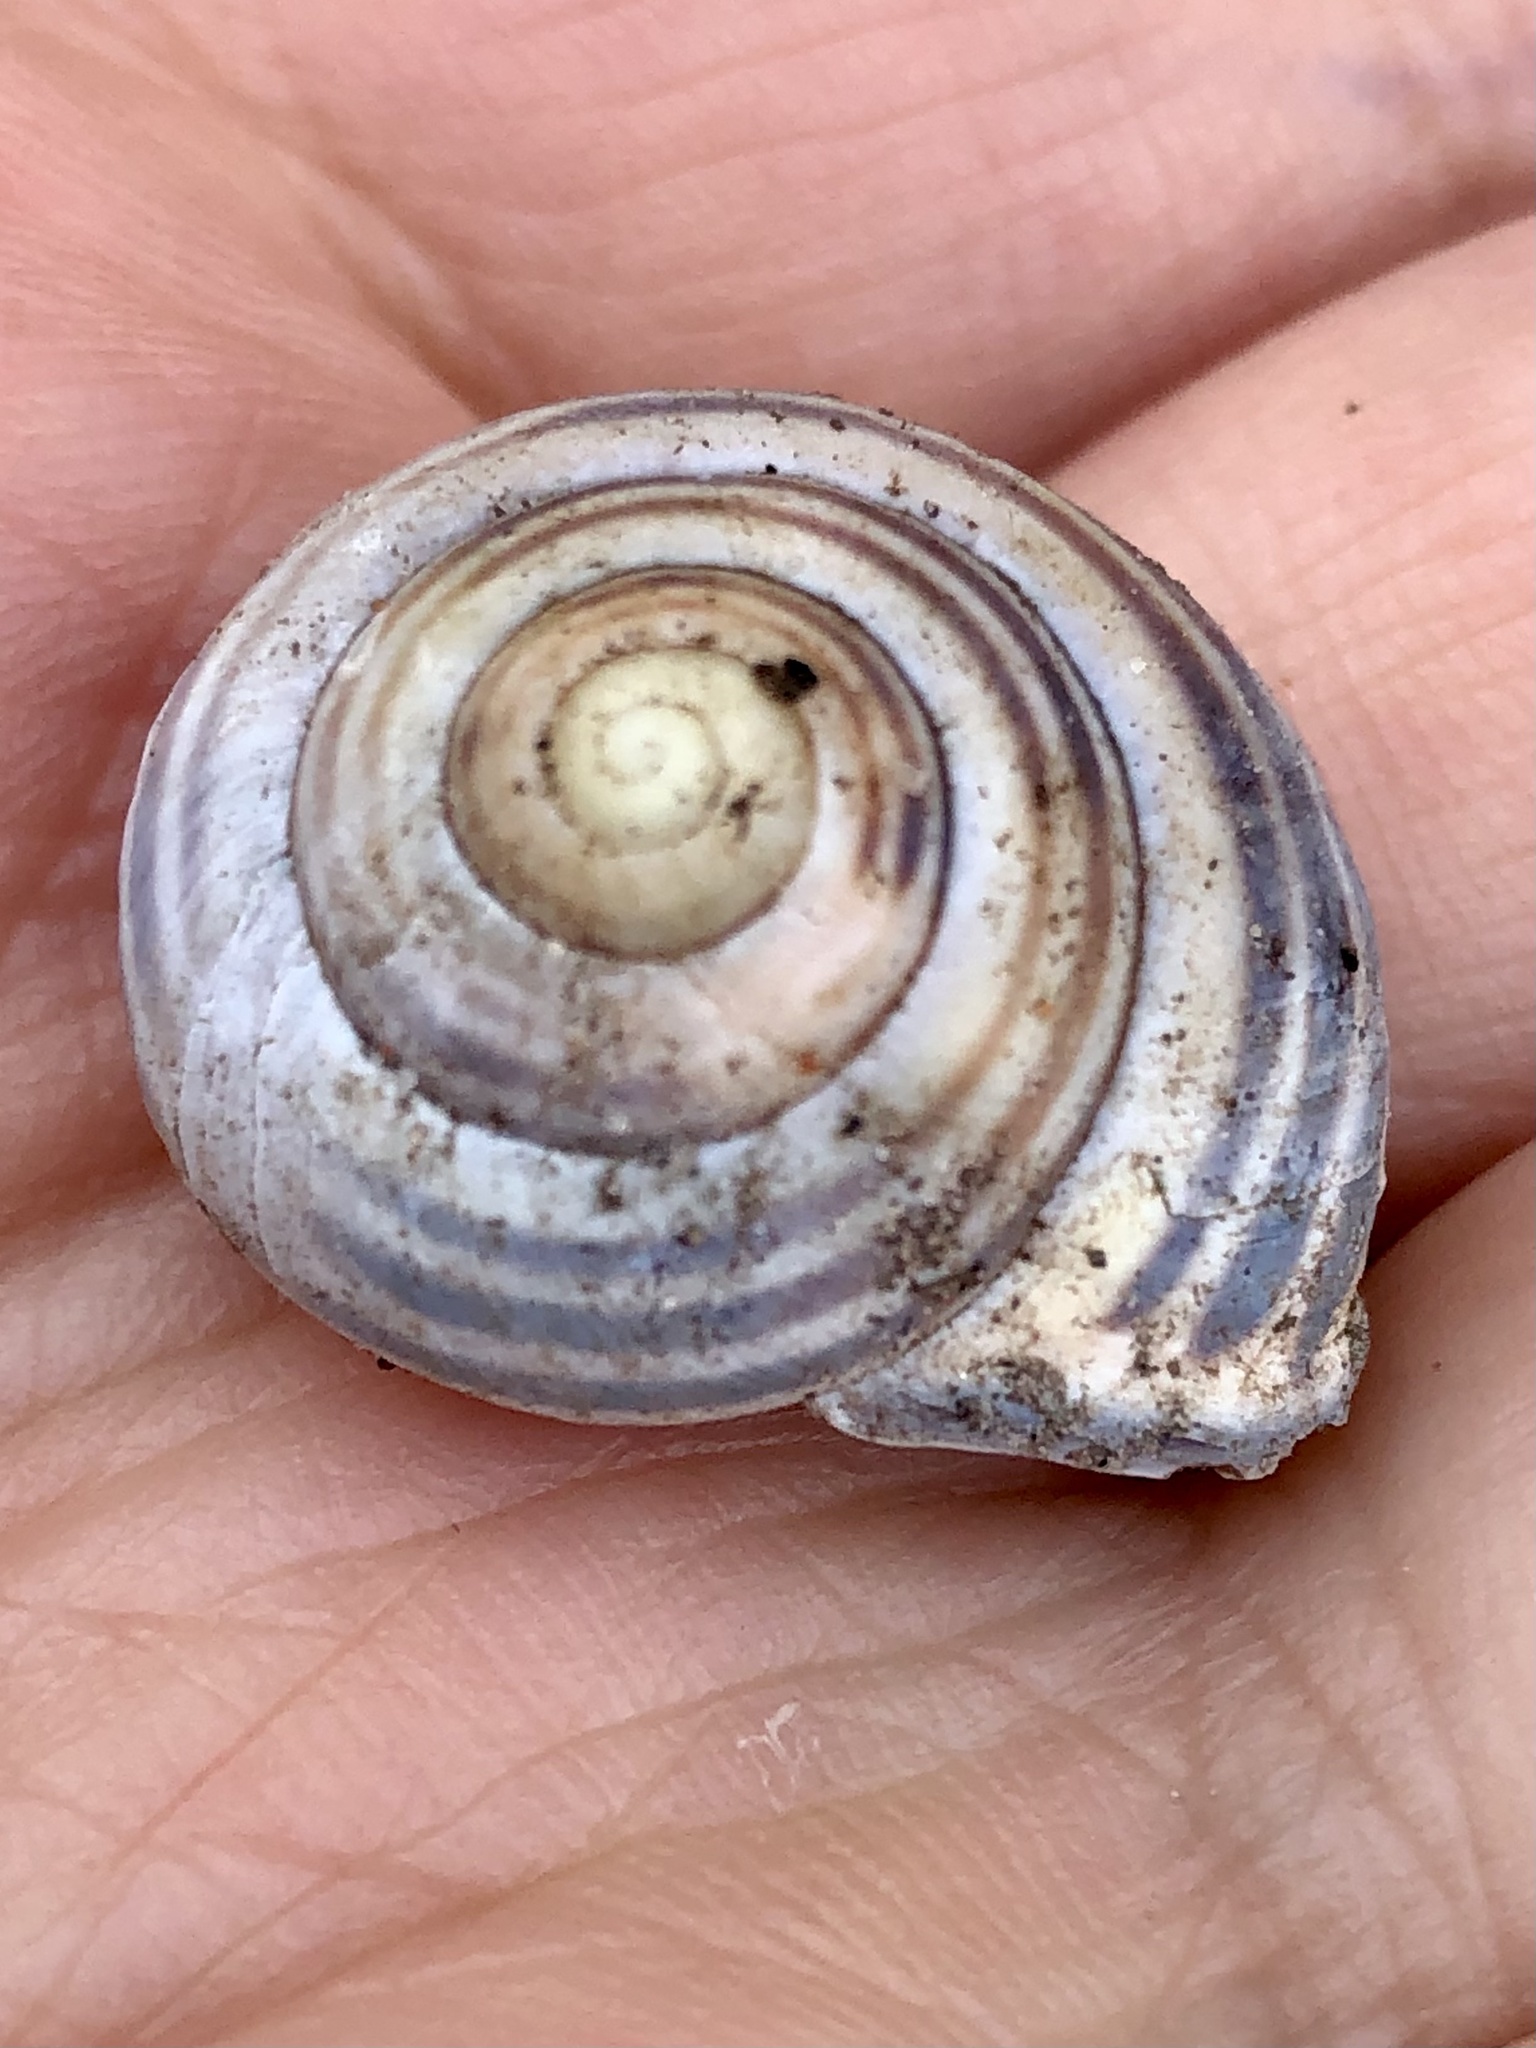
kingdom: Animalia
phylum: Mollusca
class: Gastropoda
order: Stylommatophora
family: Helicidae
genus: Cepaea
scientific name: Cepaea nemoralis
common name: Grovesnail
